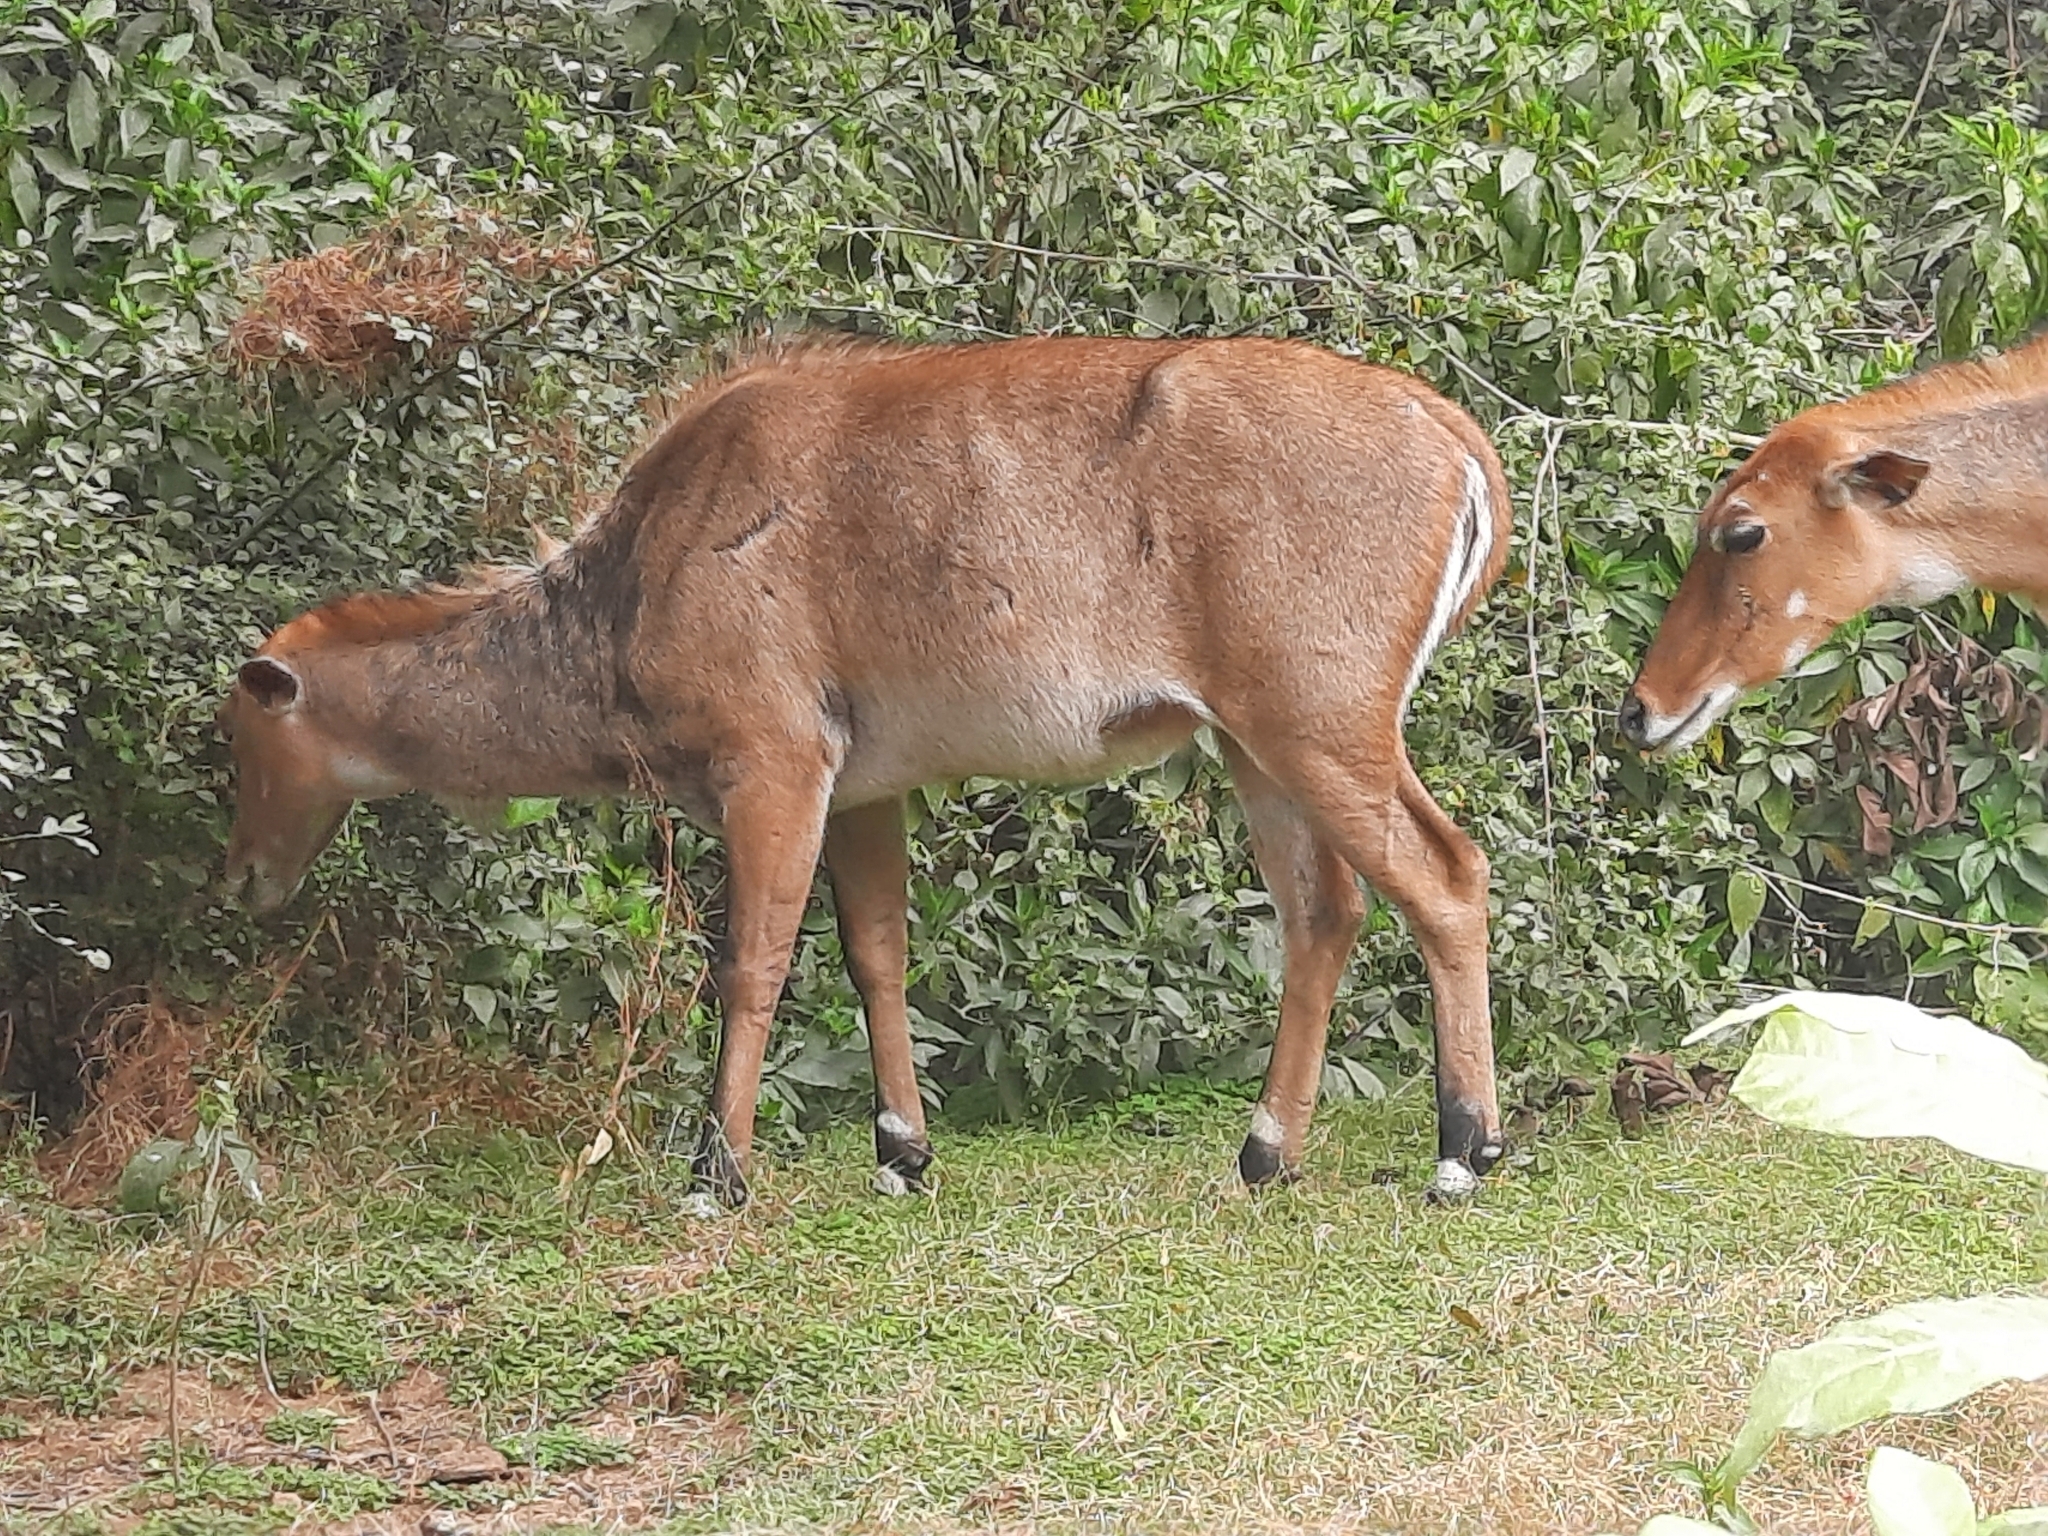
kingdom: Animalia
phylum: Chordata
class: Mammalia
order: Artiodactyla
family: Bovidae
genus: Boselaphus
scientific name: Boselaphus tragocamelus
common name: Nilgai
